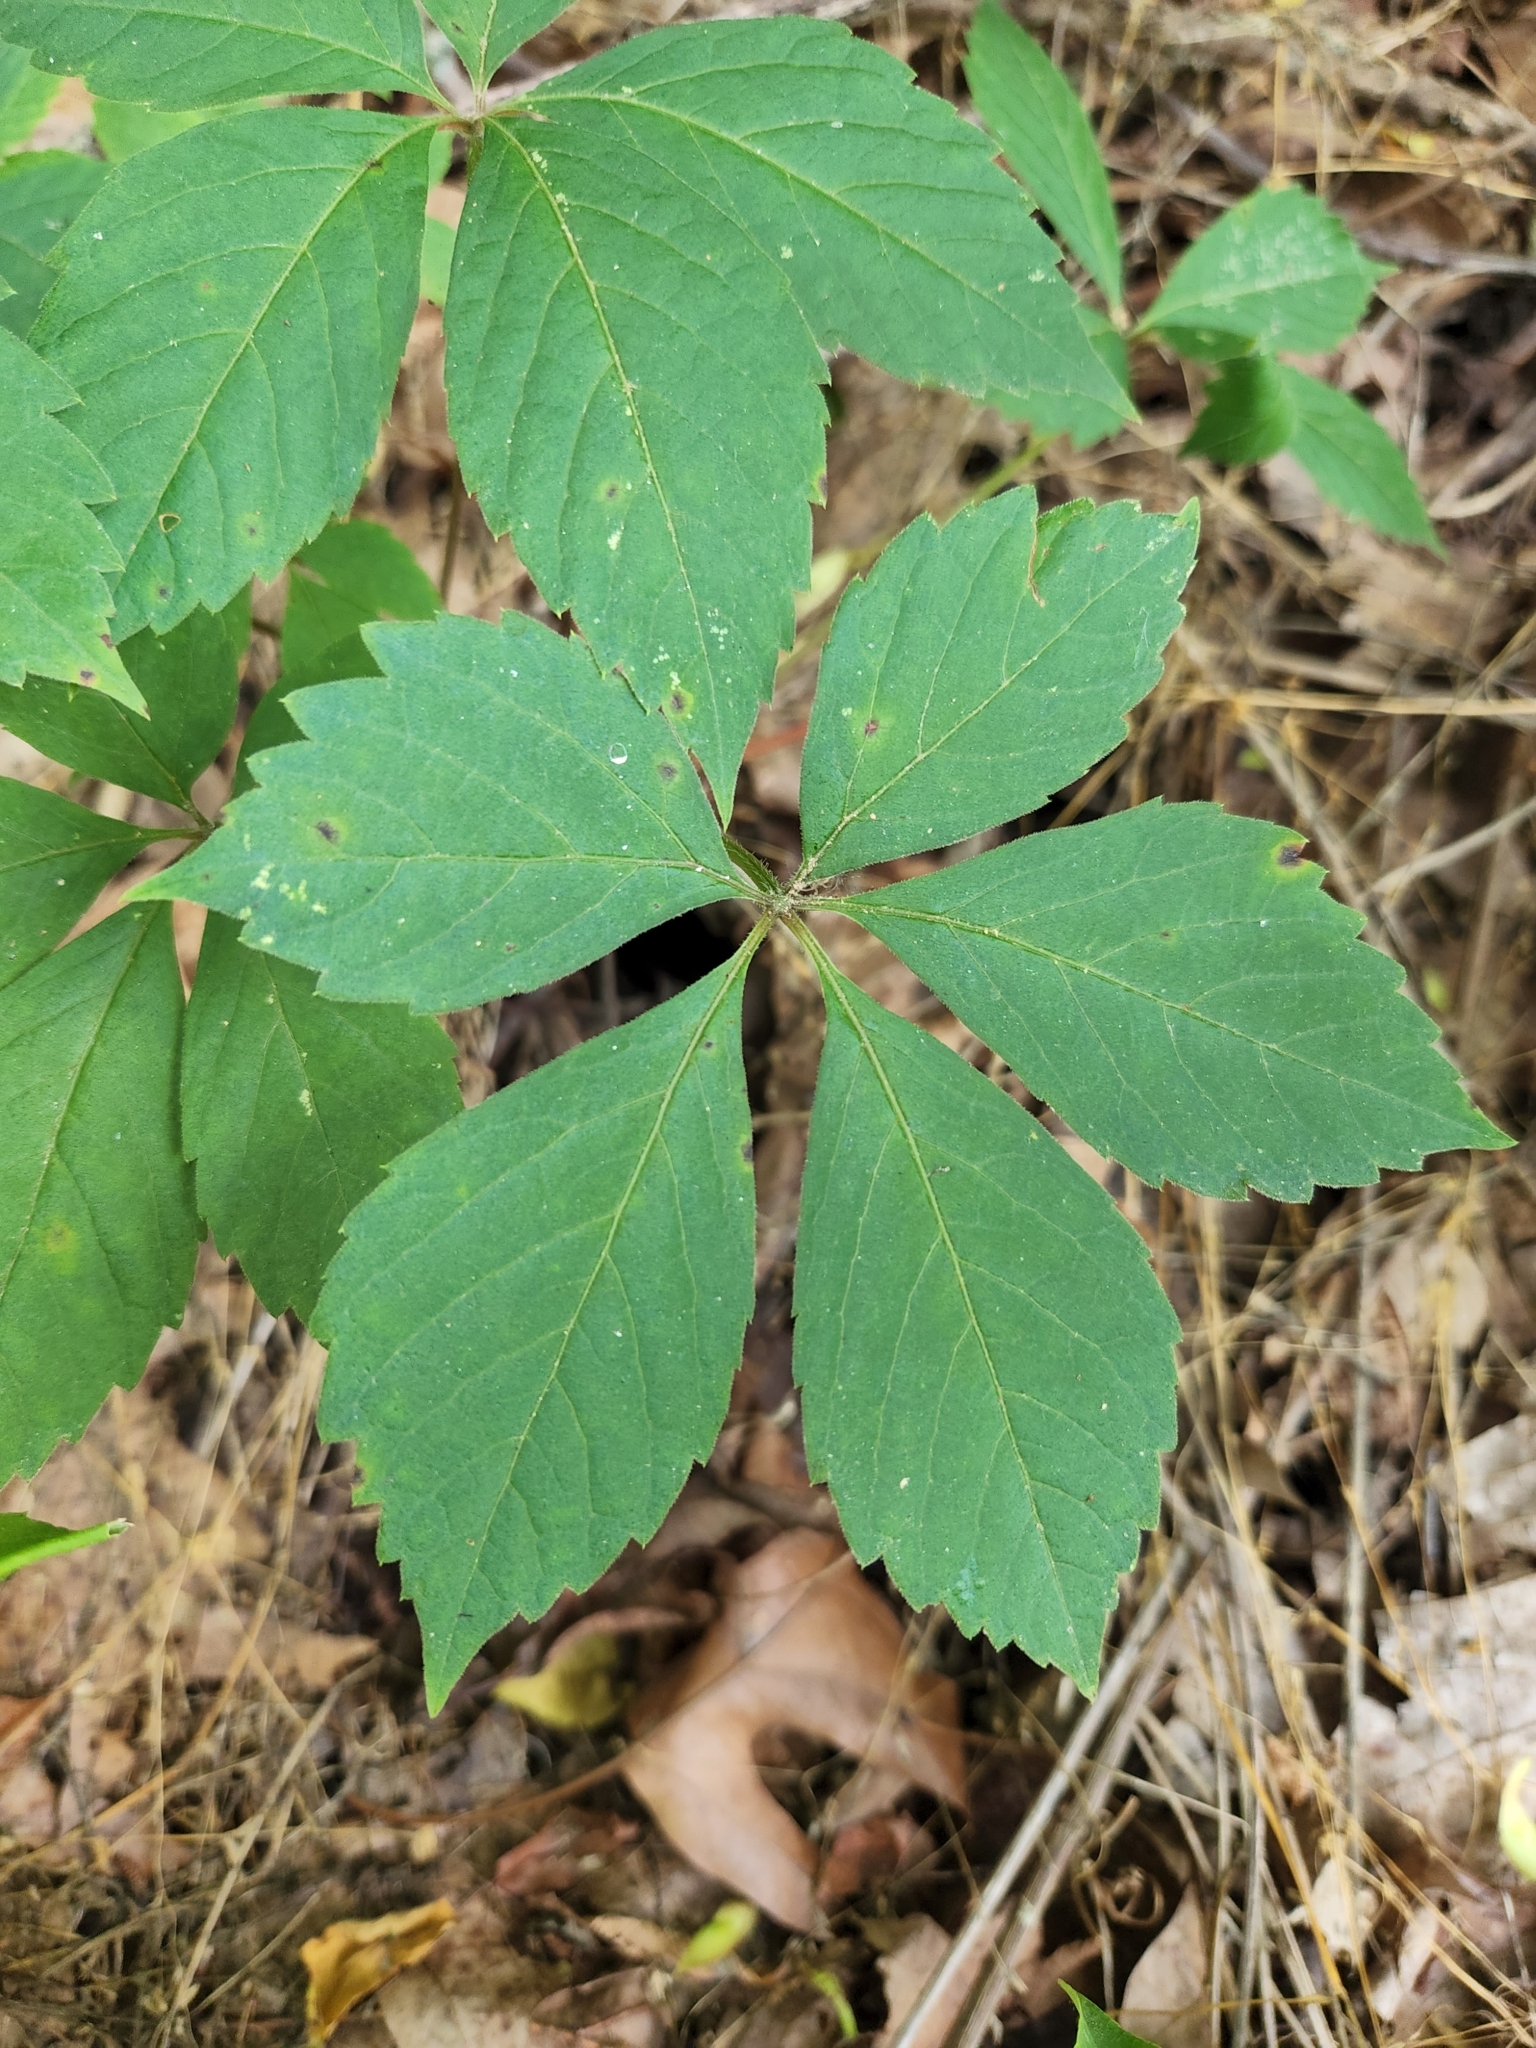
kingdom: Plantae
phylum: Tracheophyta
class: Magnoliopsida
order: Vitales
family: Vitaceae
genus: Parthenocissus
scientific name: Parthenocissus quinquefolia
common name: Virginia-creeper
